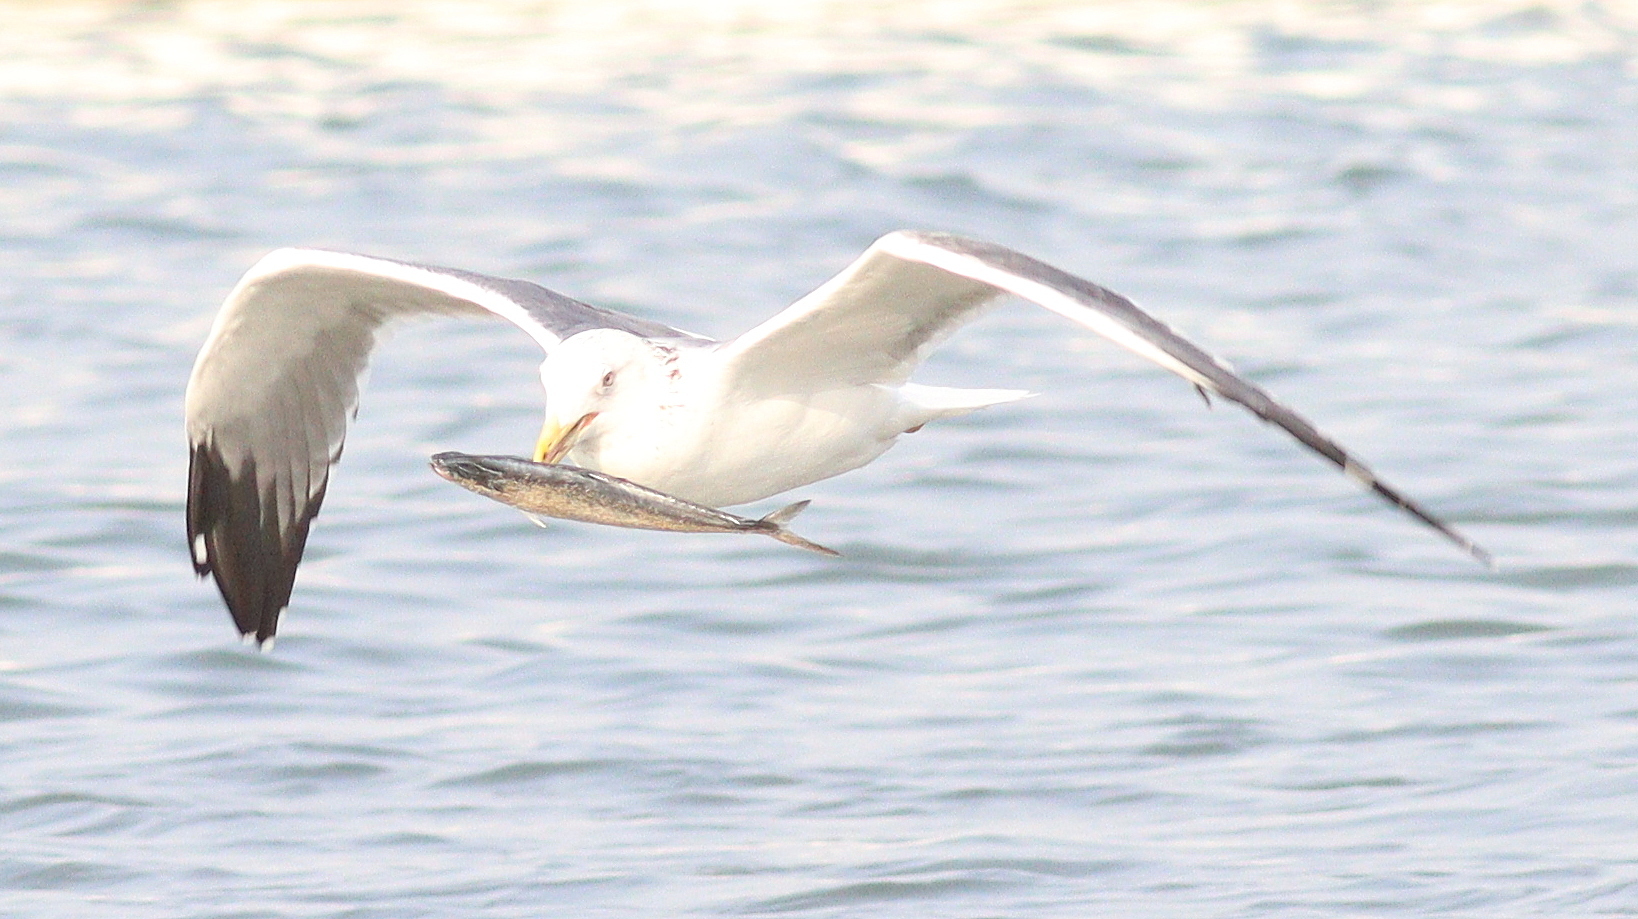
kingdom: Animalia
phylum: Chordata
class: Aves
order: Charadriiformes
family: Laridae
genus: Larus
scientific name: Larus fuscus
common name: Lesser black-backed gull
